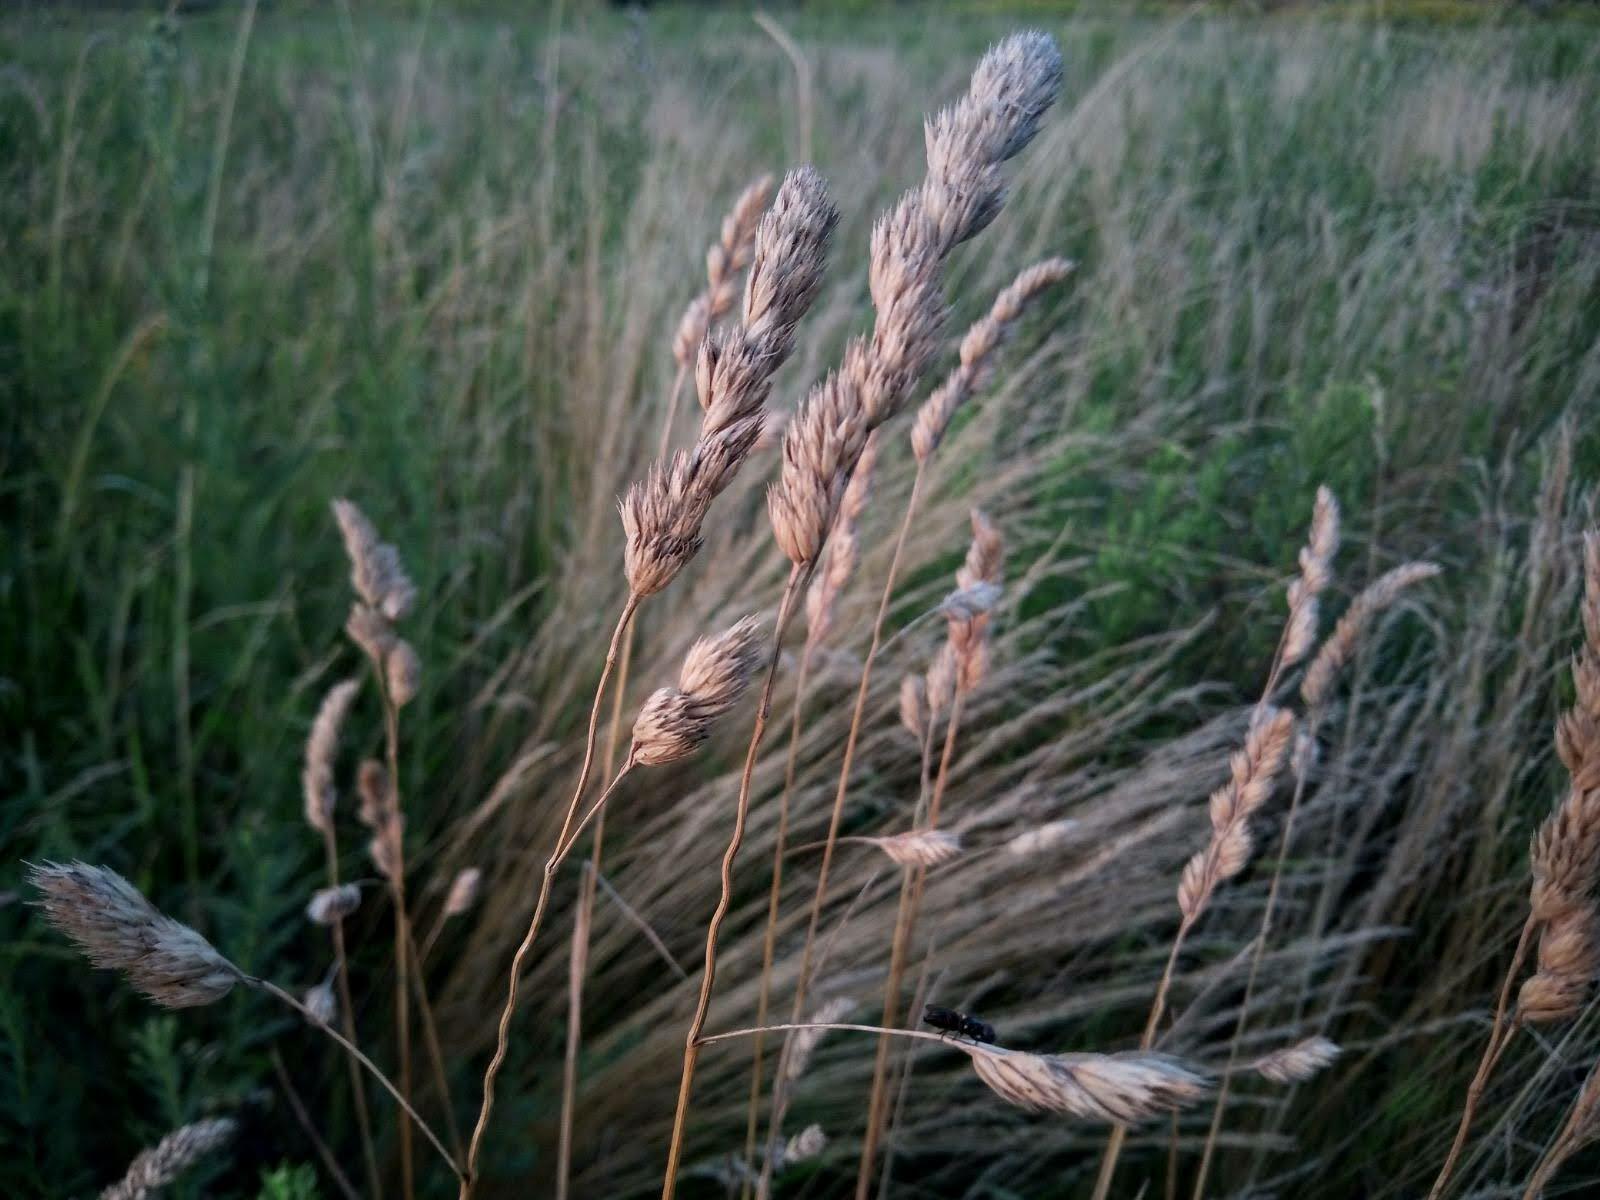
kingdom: Plantae
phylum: Tracheophyta
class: Liliopsida
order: Poales
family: Poaceae
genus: Dactylis
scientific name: Dactylis glomerata
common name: Orchardgrass
